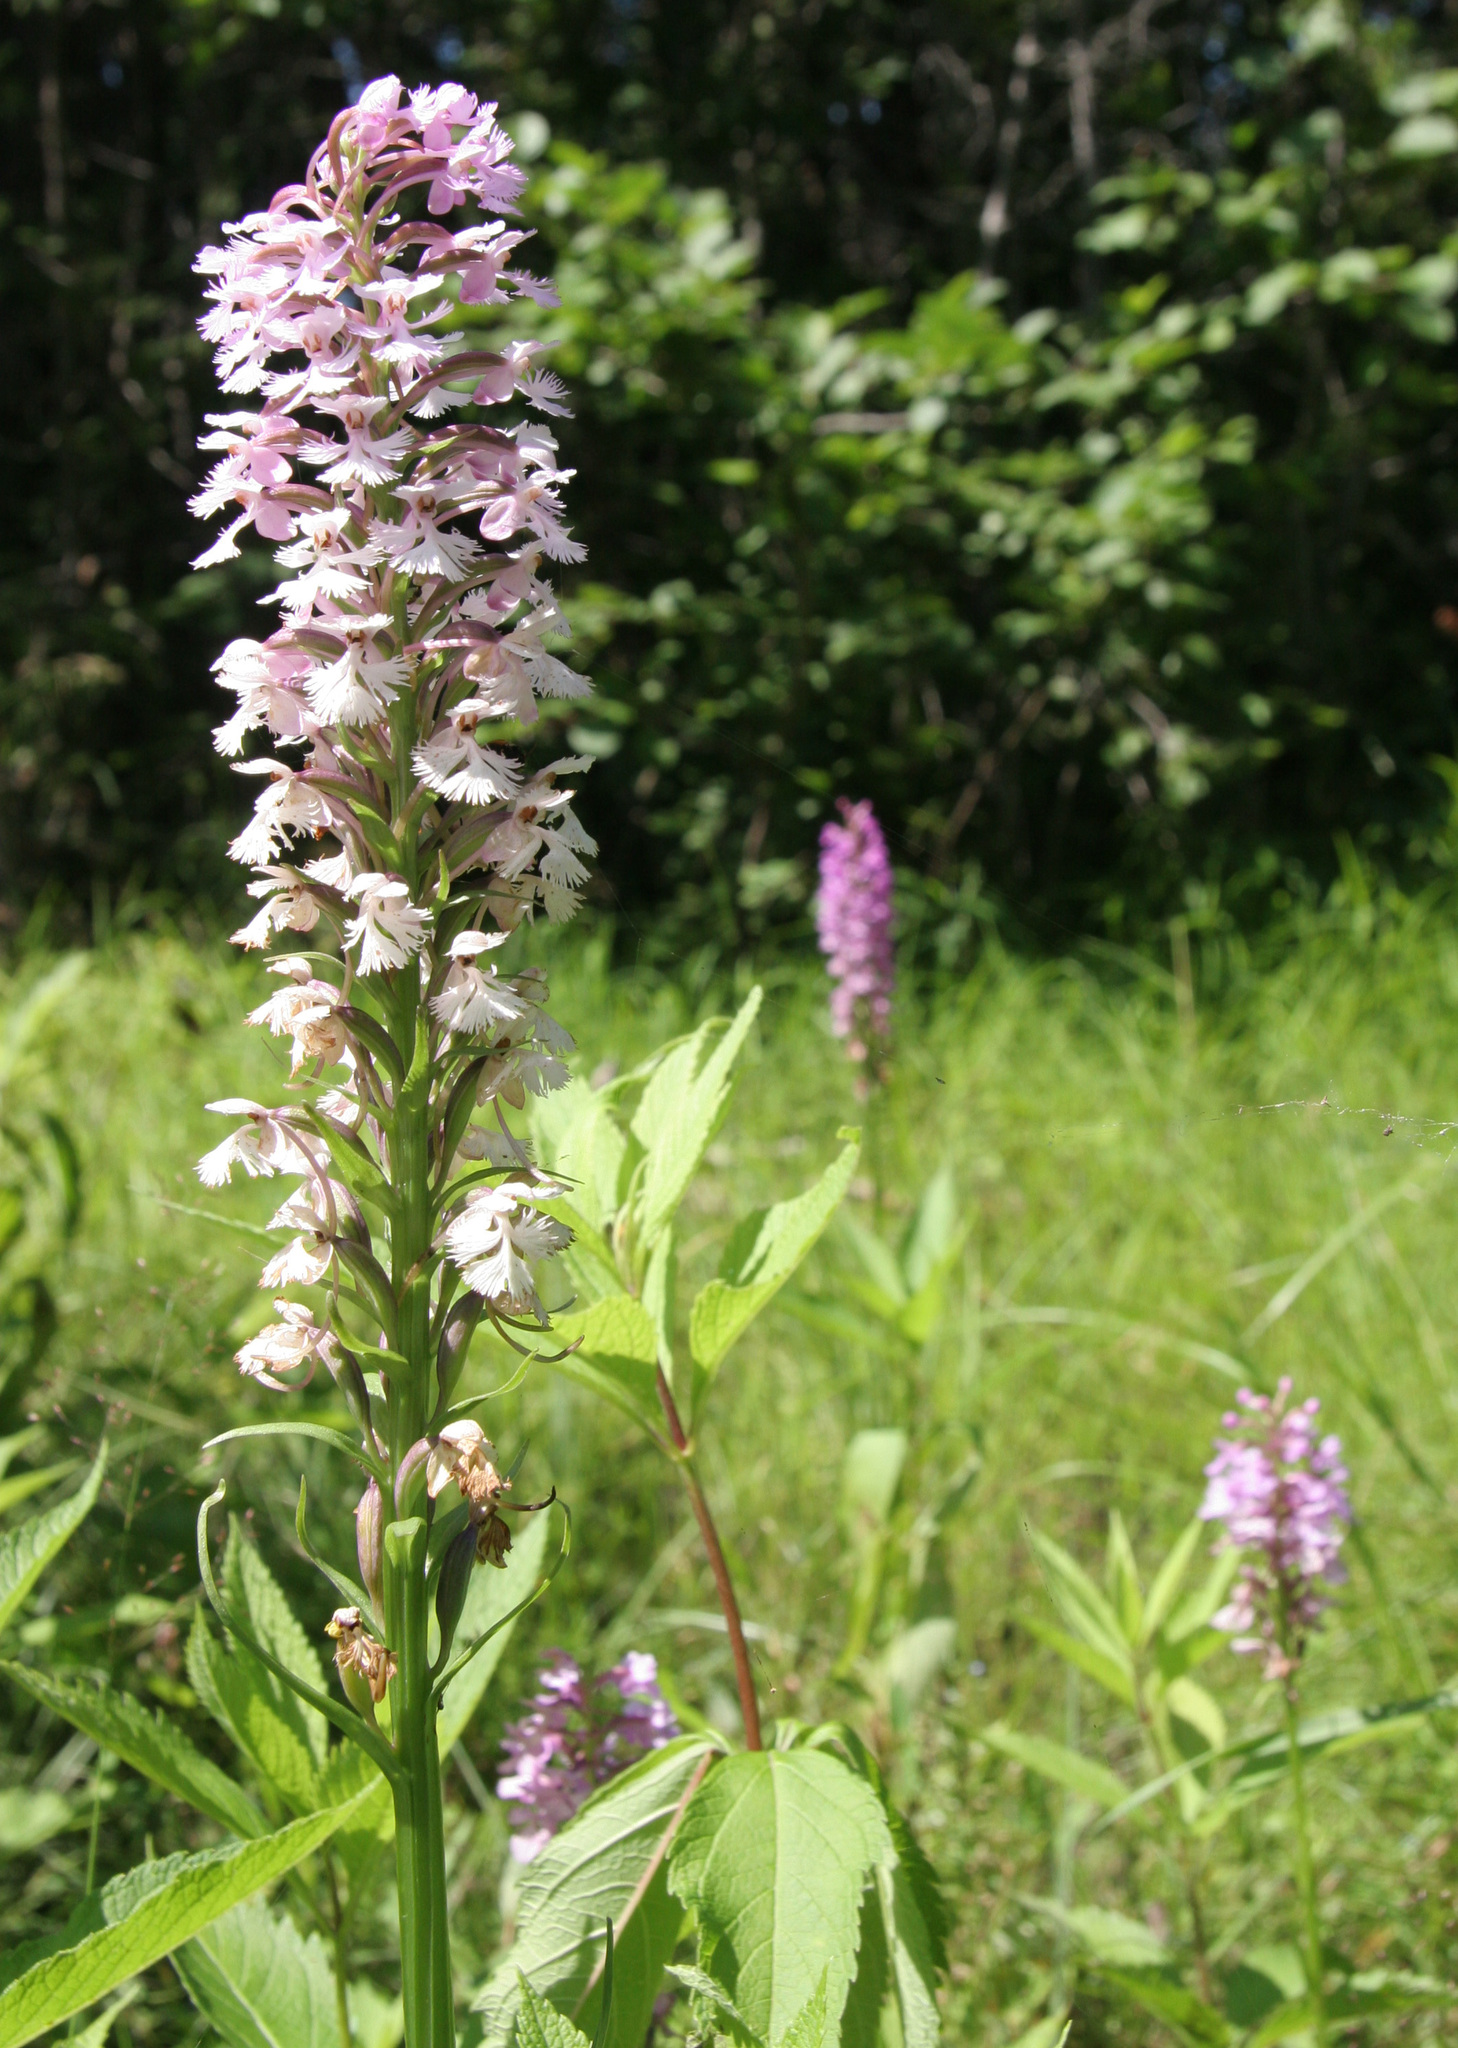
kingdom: Plantae
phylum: Tracheophyta
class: Liliopsida
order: Asparagales
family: Orchidaceae
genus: Platanthera
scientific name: Platanthera psycodes
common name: Lesser purple fringed orchid
